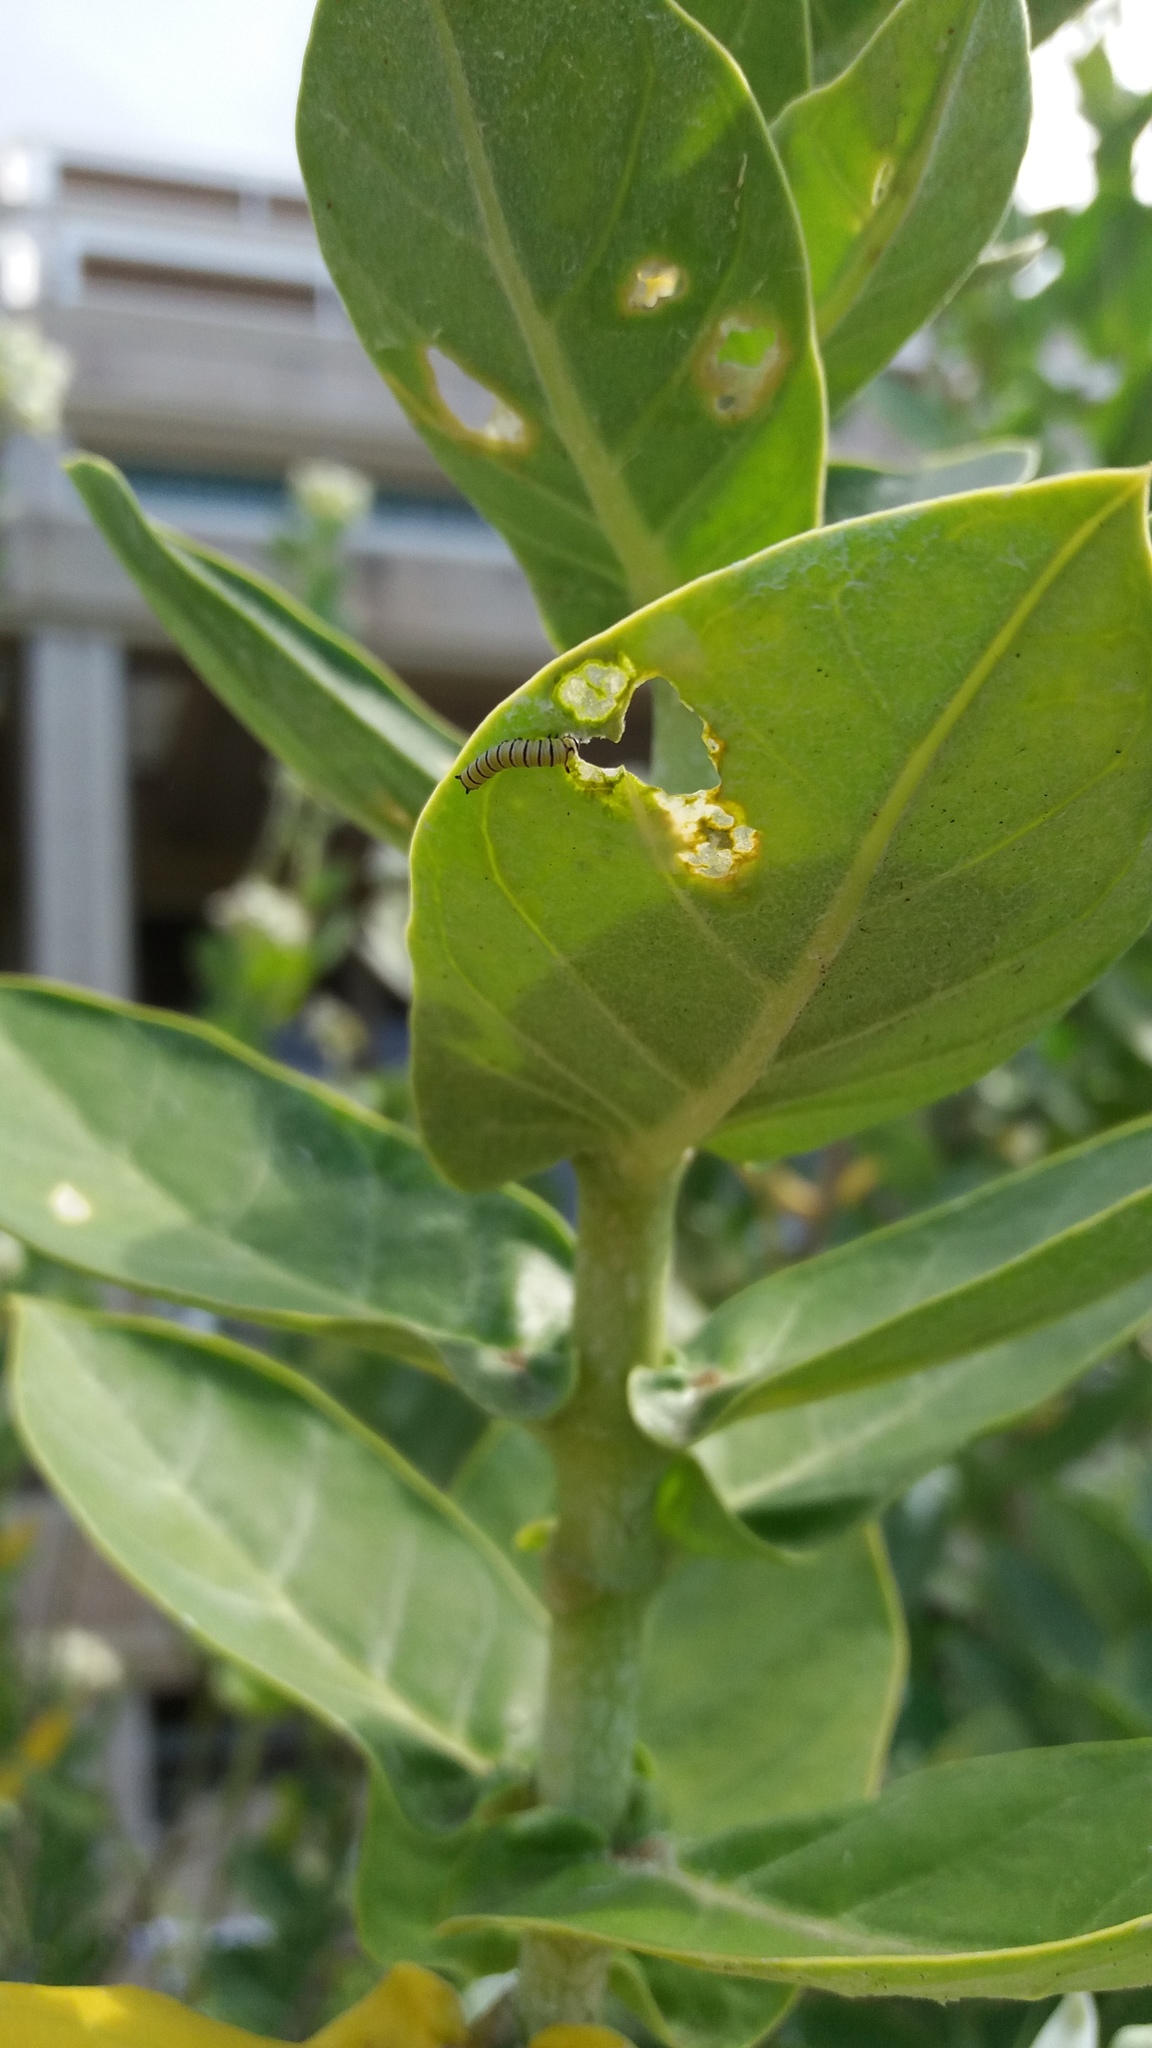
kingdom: Animalia
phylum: Arthropoda
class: Insecta
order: Lepidoptera
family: Nymphalidae
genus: Danaus
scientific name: Danaus plexippus
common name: Monarch
